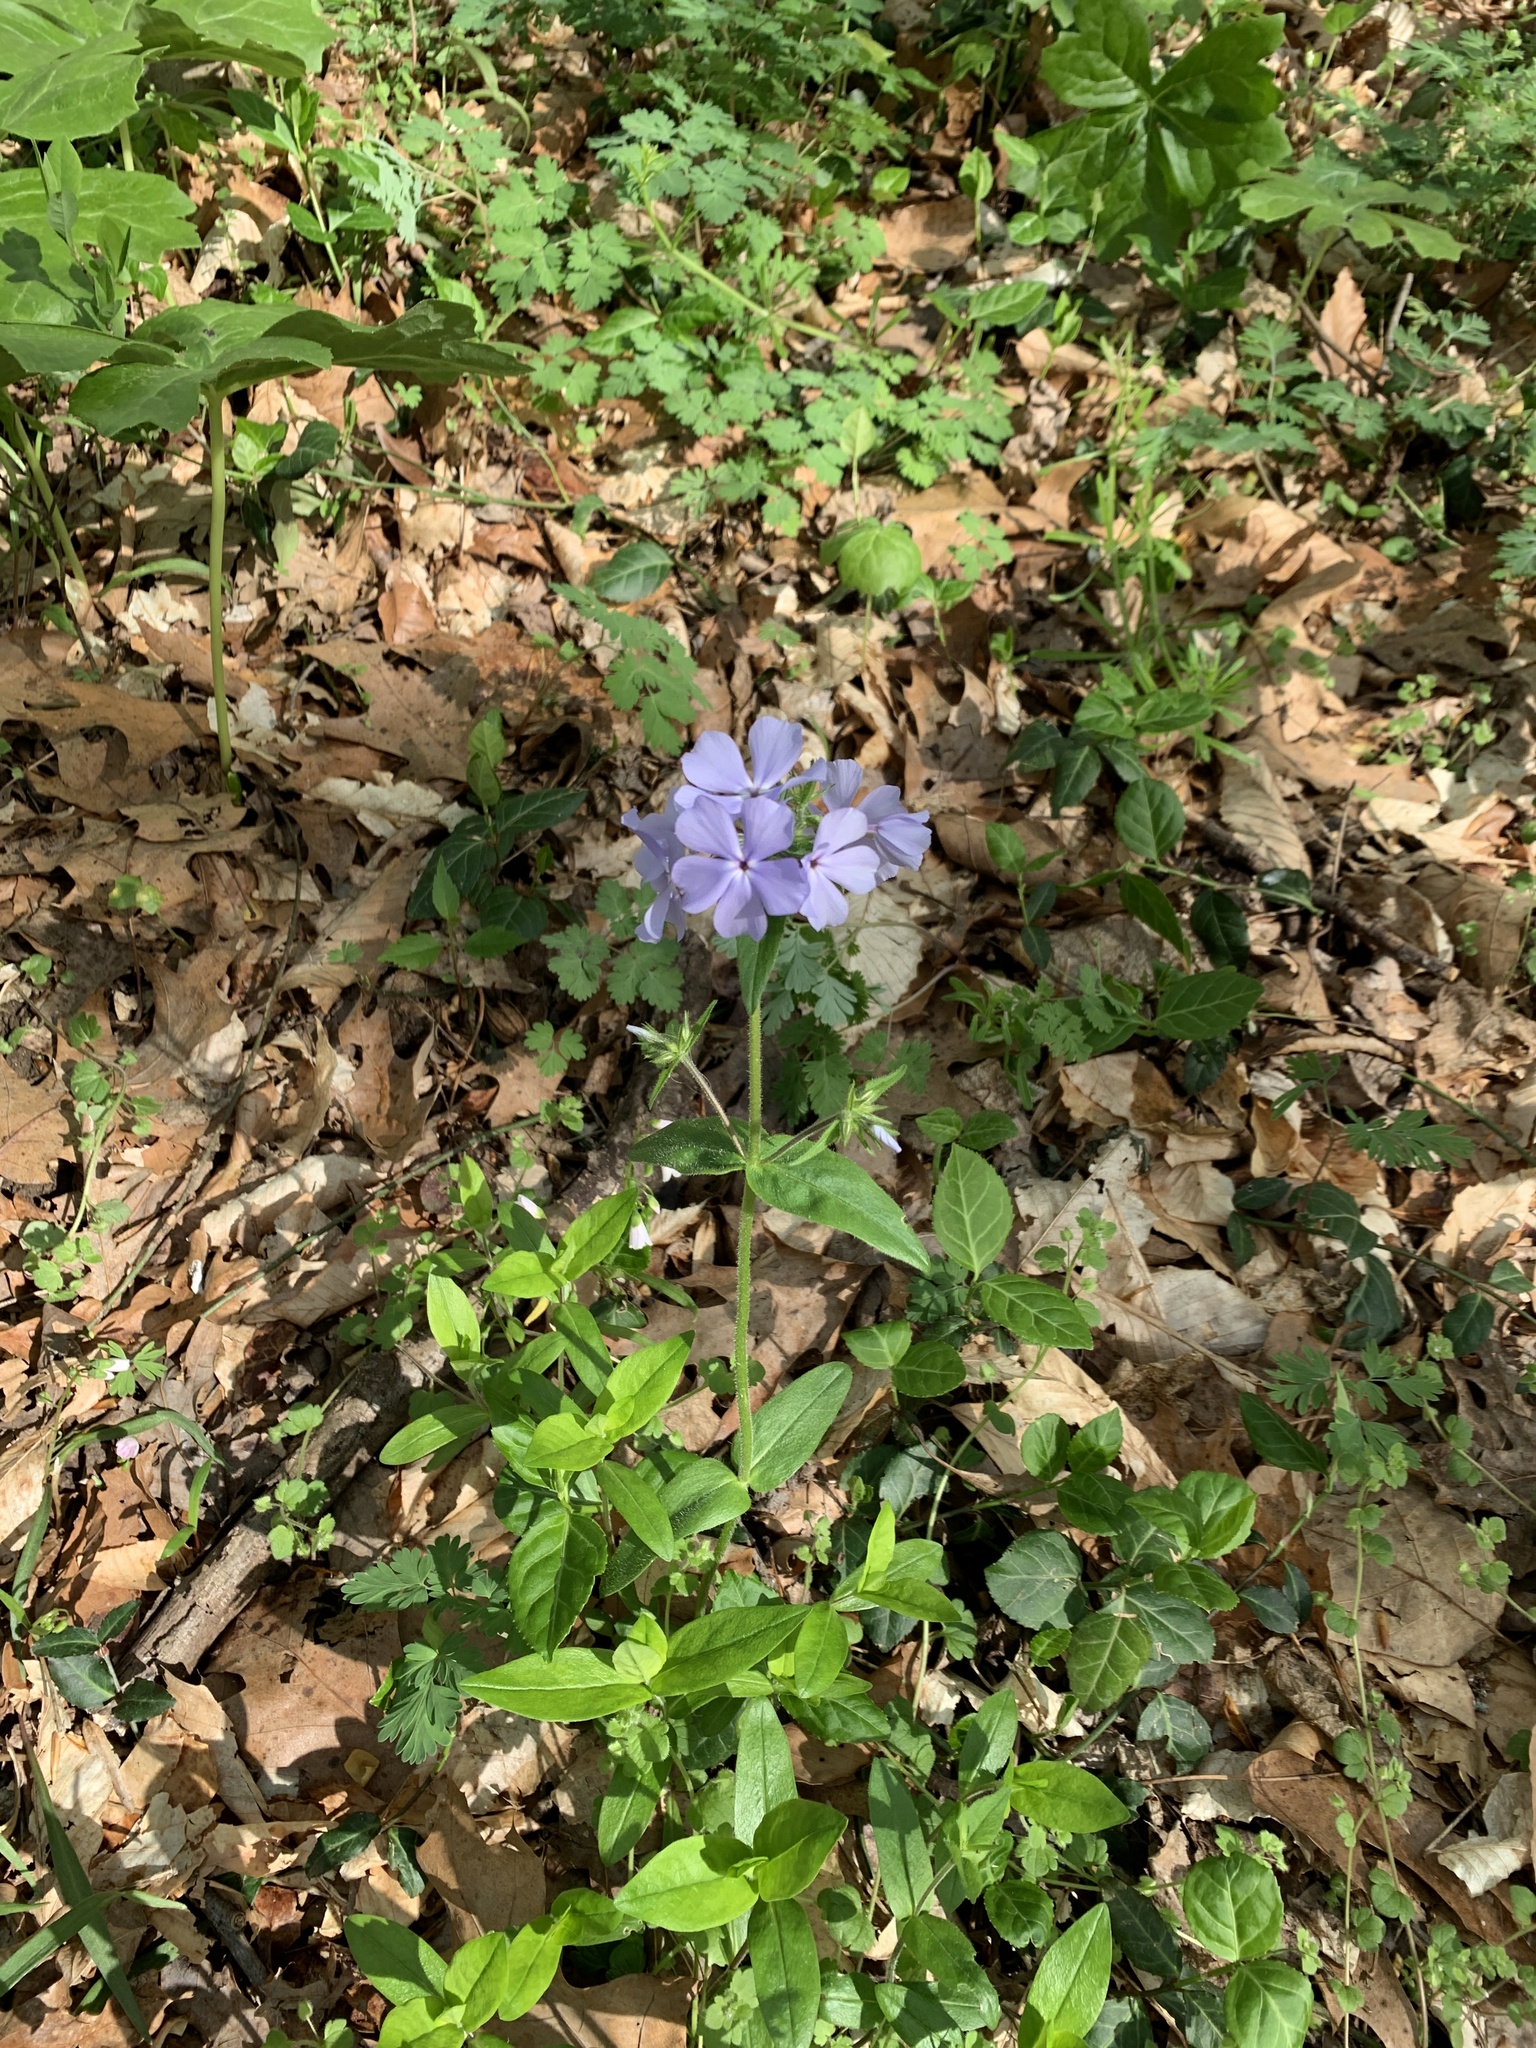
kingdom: Plantae
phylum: Tracheophyta
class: Magnoliopsida
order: Ericales
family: Polemoniaceae
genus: Phlox
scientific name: Phlox divaricata
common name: Blue phlox
